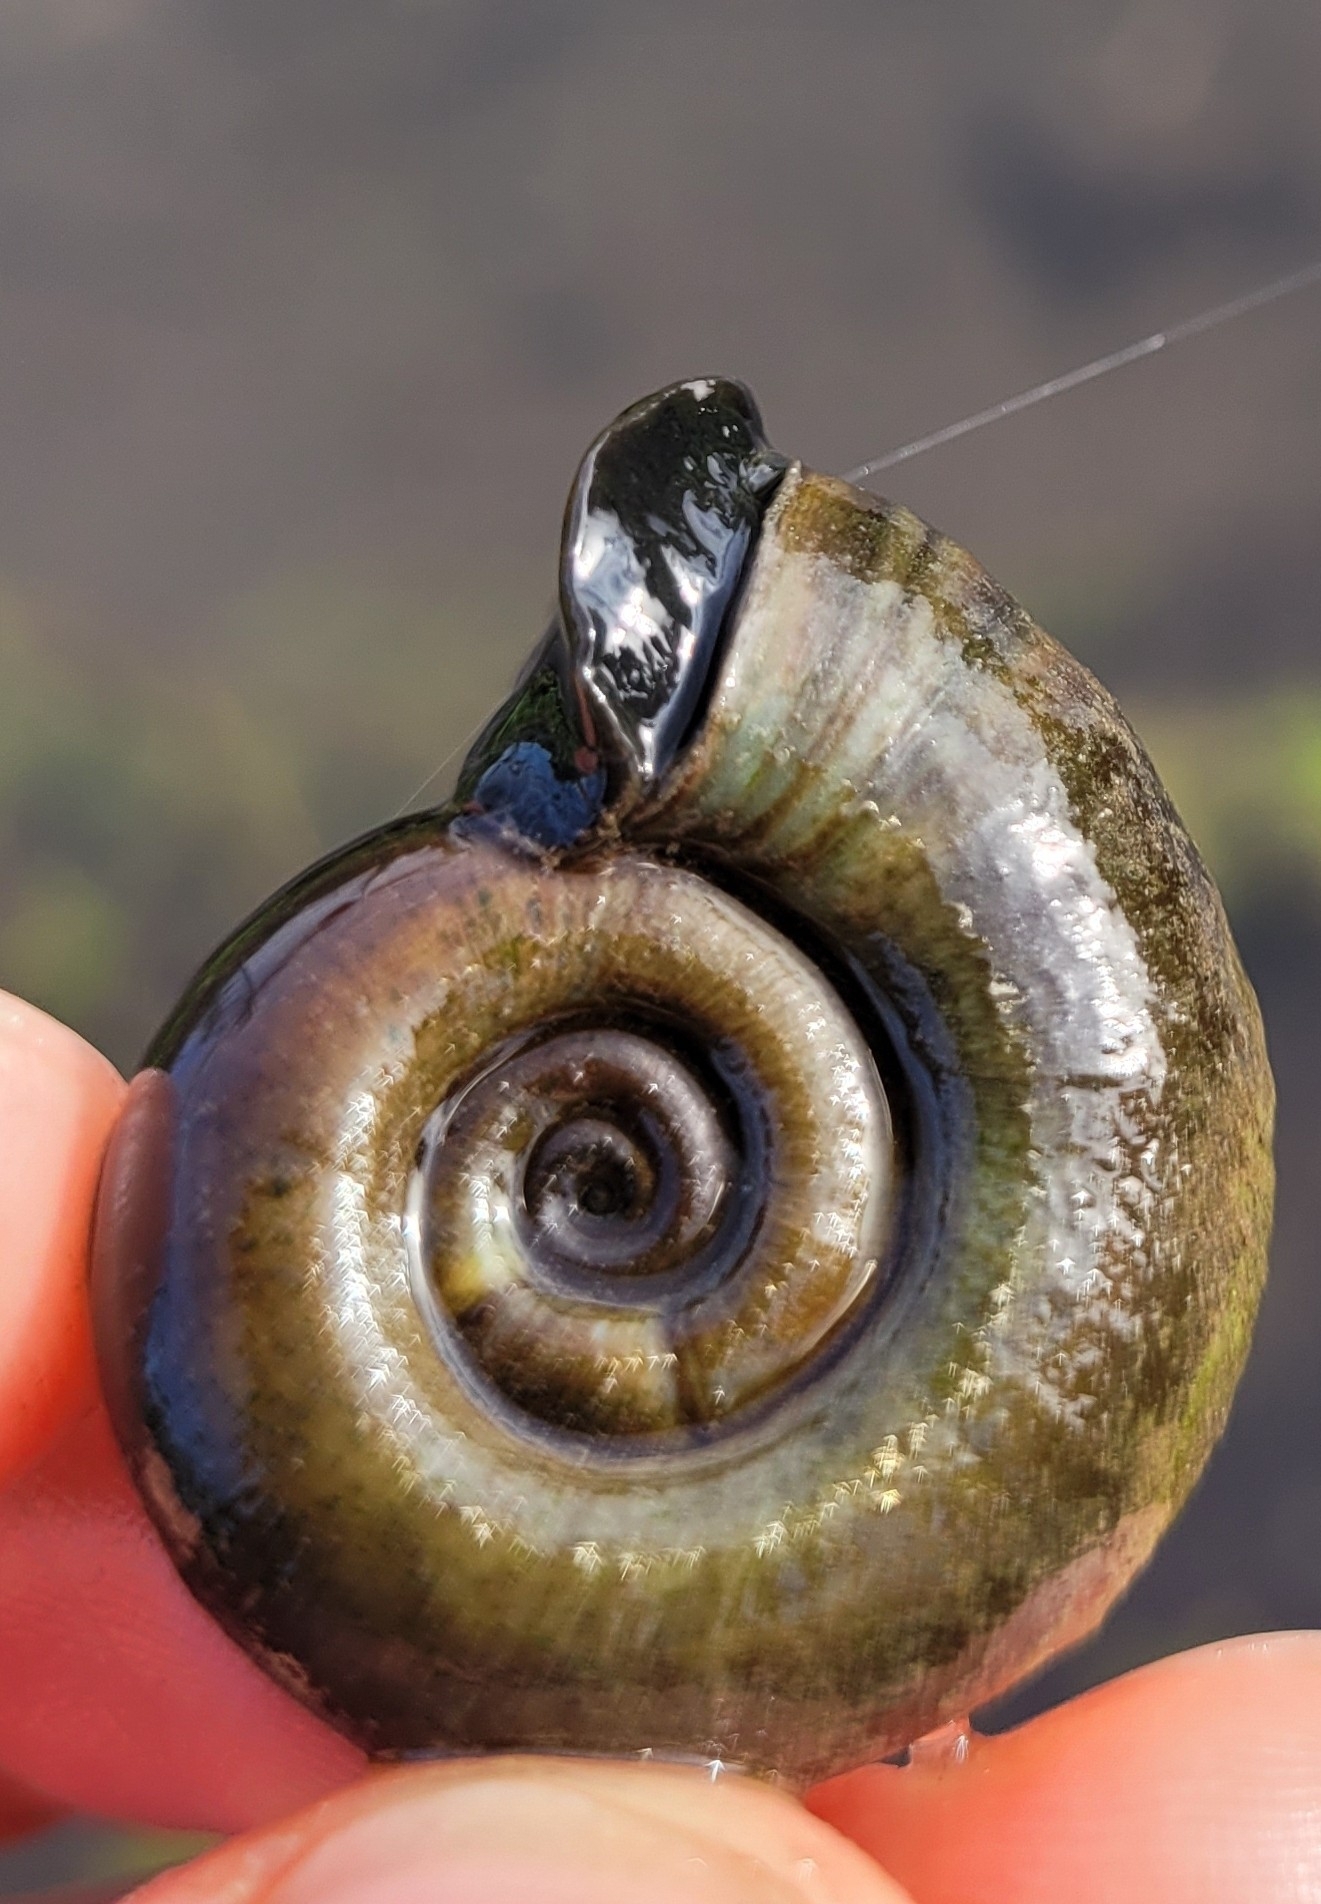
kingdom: Animalia
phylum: Mollusca
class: Gastropoda
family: Planorbidae
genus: Planorbarius
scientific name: Planorbarius corneus
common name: Great ramshorn
